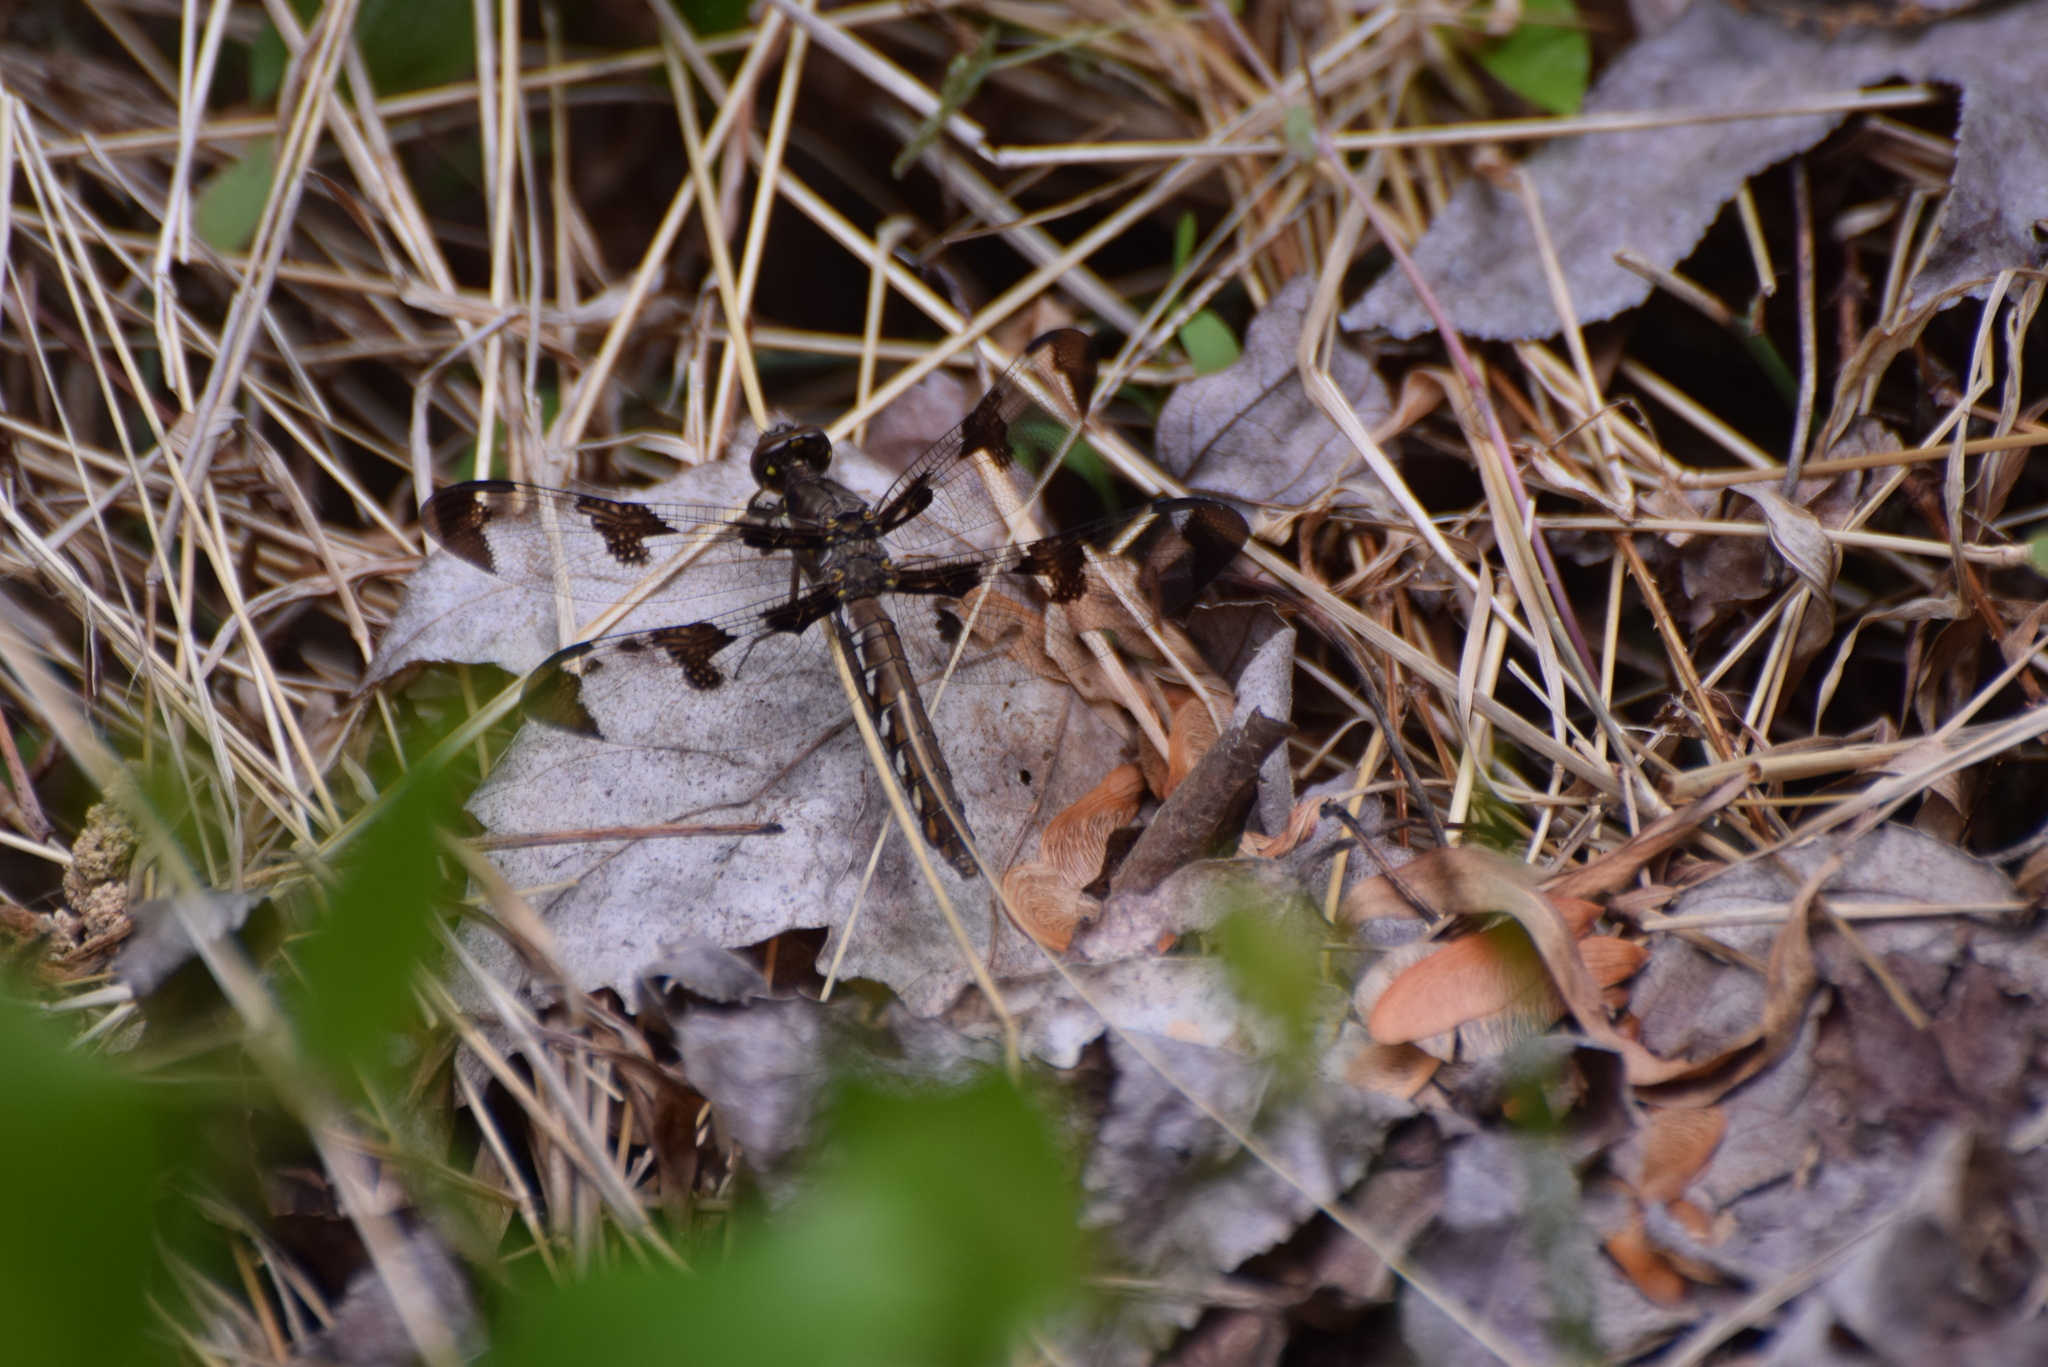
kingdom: Animalia
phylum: Arthropoda
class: Insecta
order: Odonata
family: Libellulidae
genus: Plathemis
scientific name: Plathemis lydia
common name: Common whitetail
